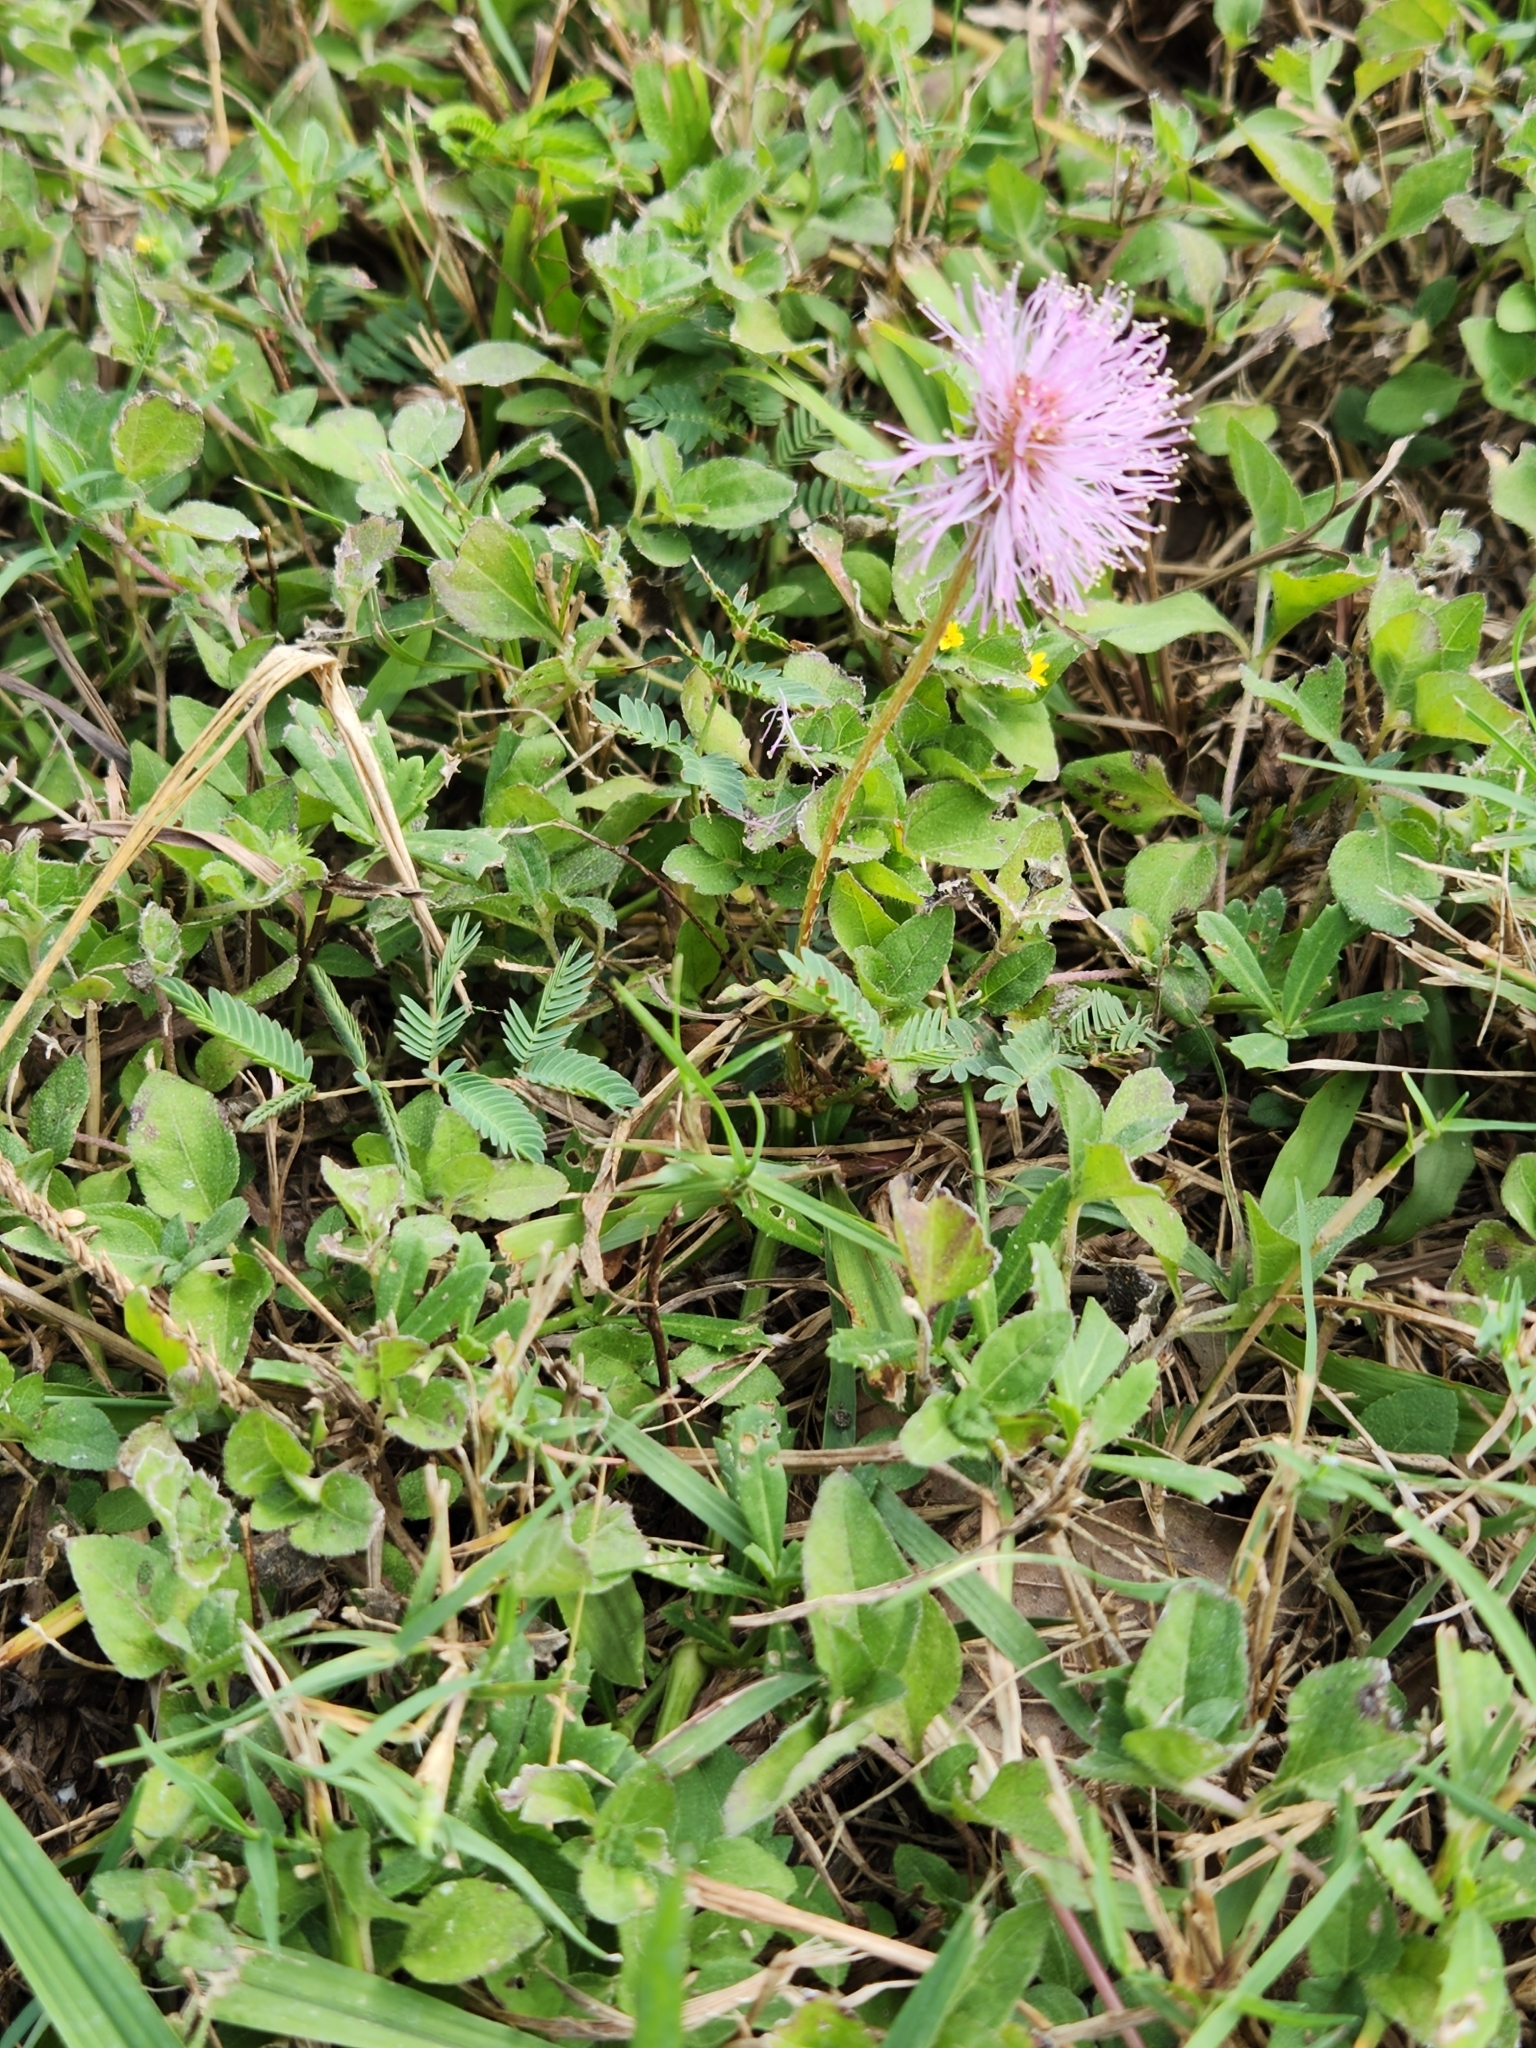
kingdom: Plantae
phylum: Tracheophyta
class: Magnoliopsida
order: Fabales
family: Fabaceae
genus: Mimosa
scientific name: Mimosa strigillosa
